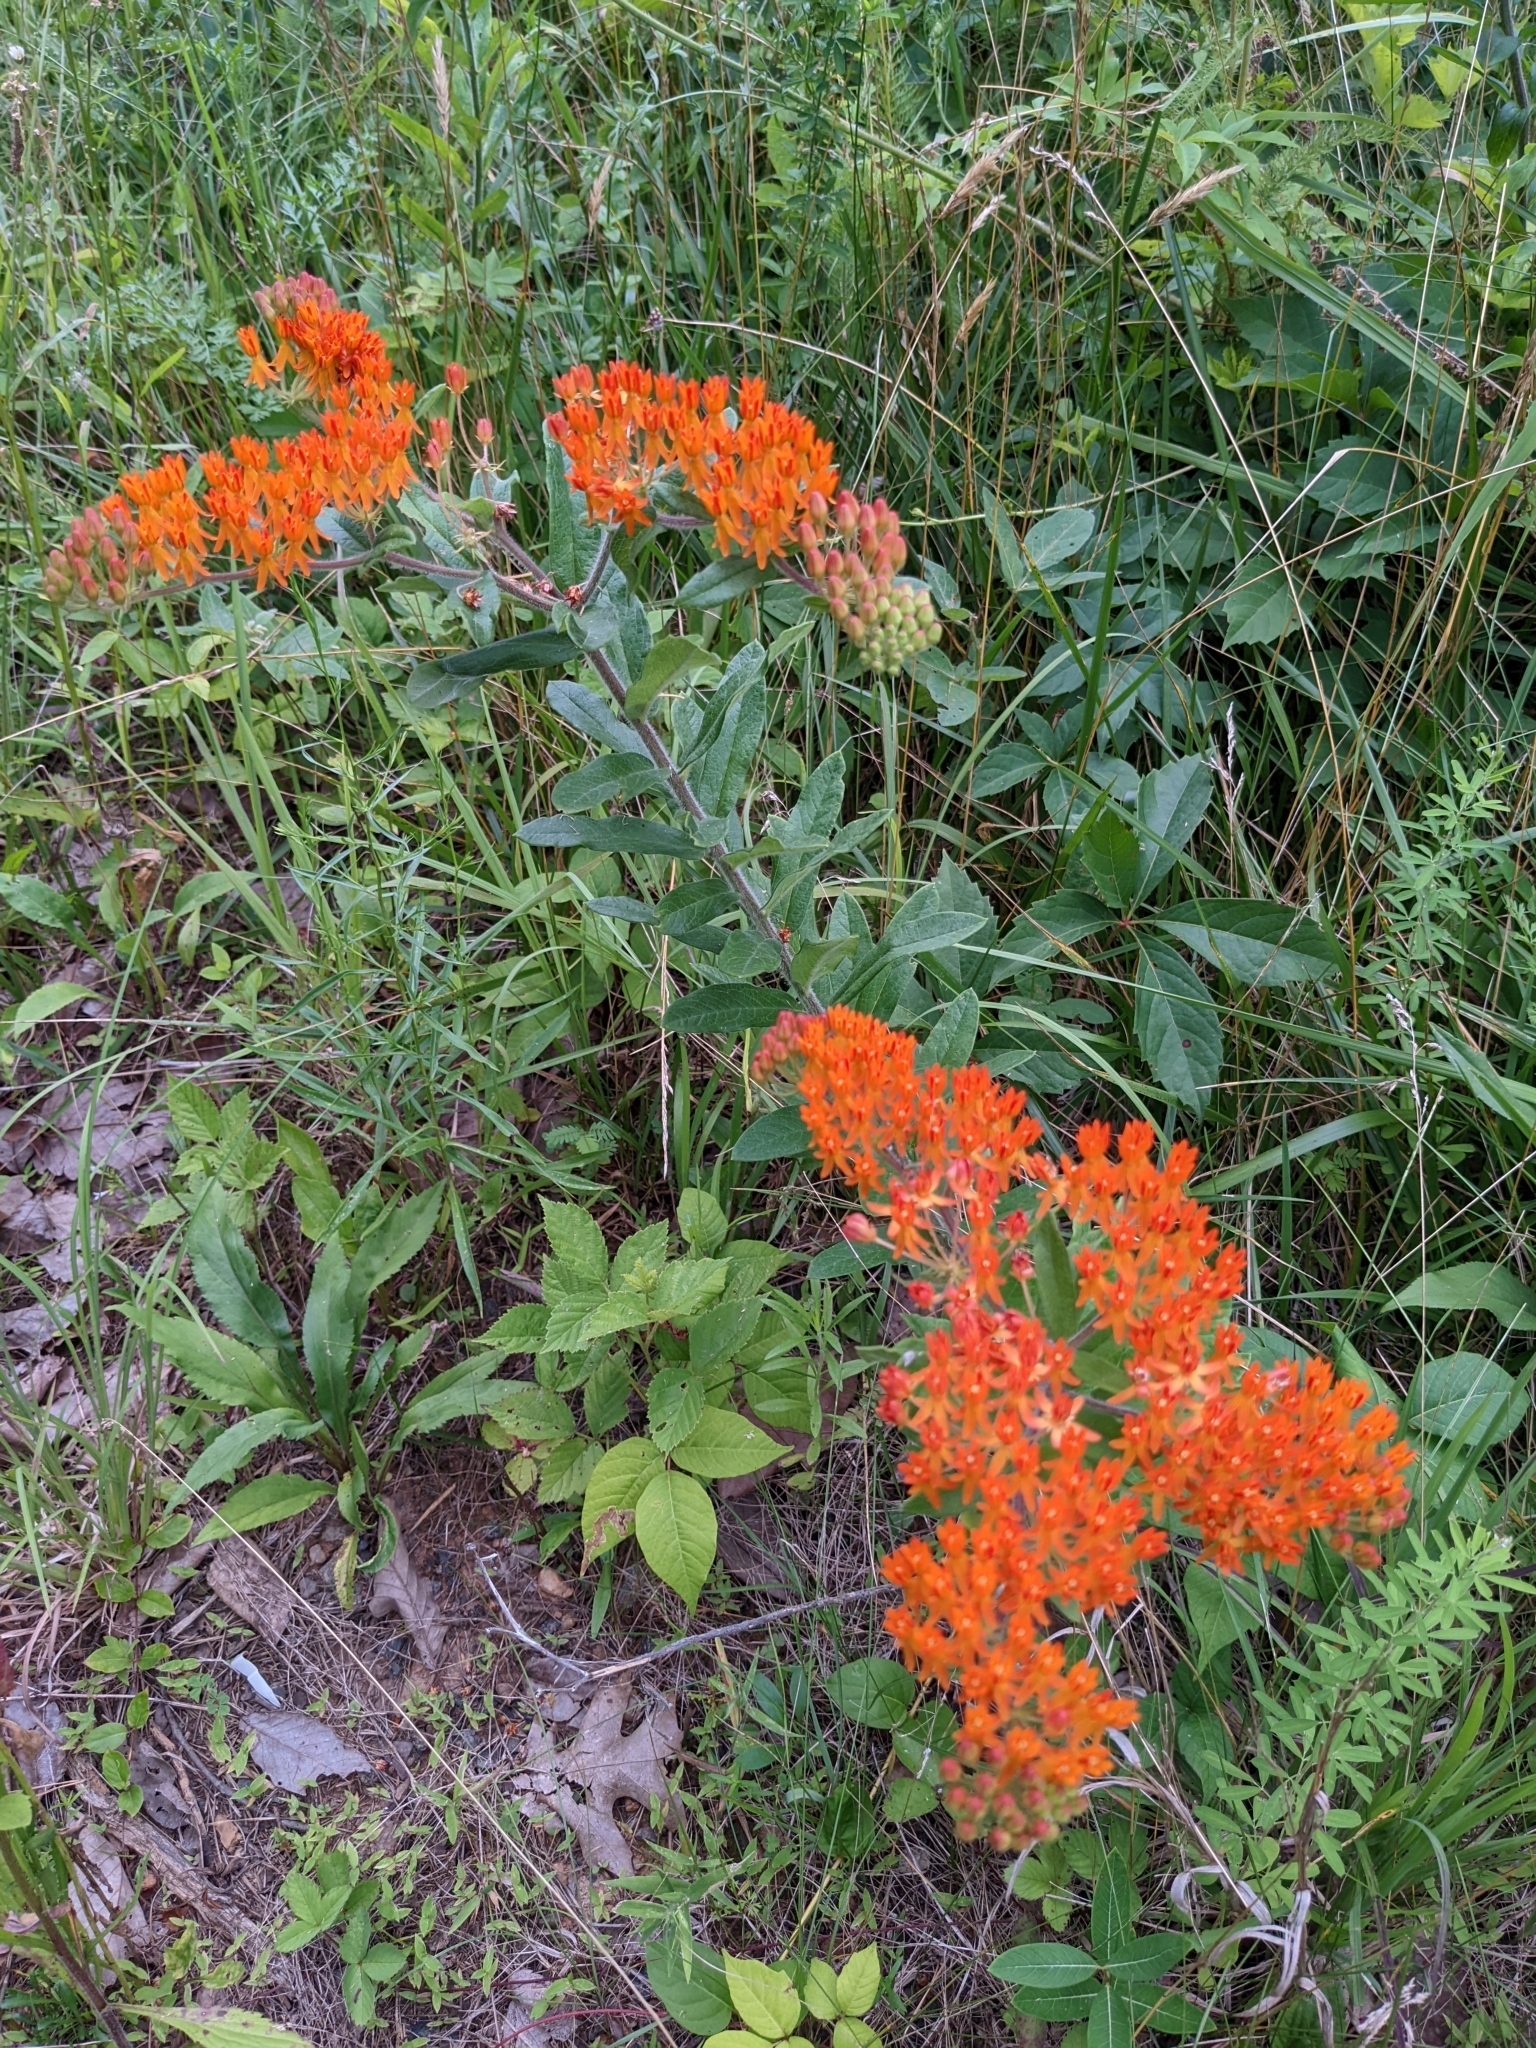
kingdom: Plantae
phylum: Tracheophyta
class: Magnoliopsida
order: Gentianales
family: Apocynaceae
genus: Asclepias
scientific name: Asclepias tuberosa
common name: Butterfly milkweed
